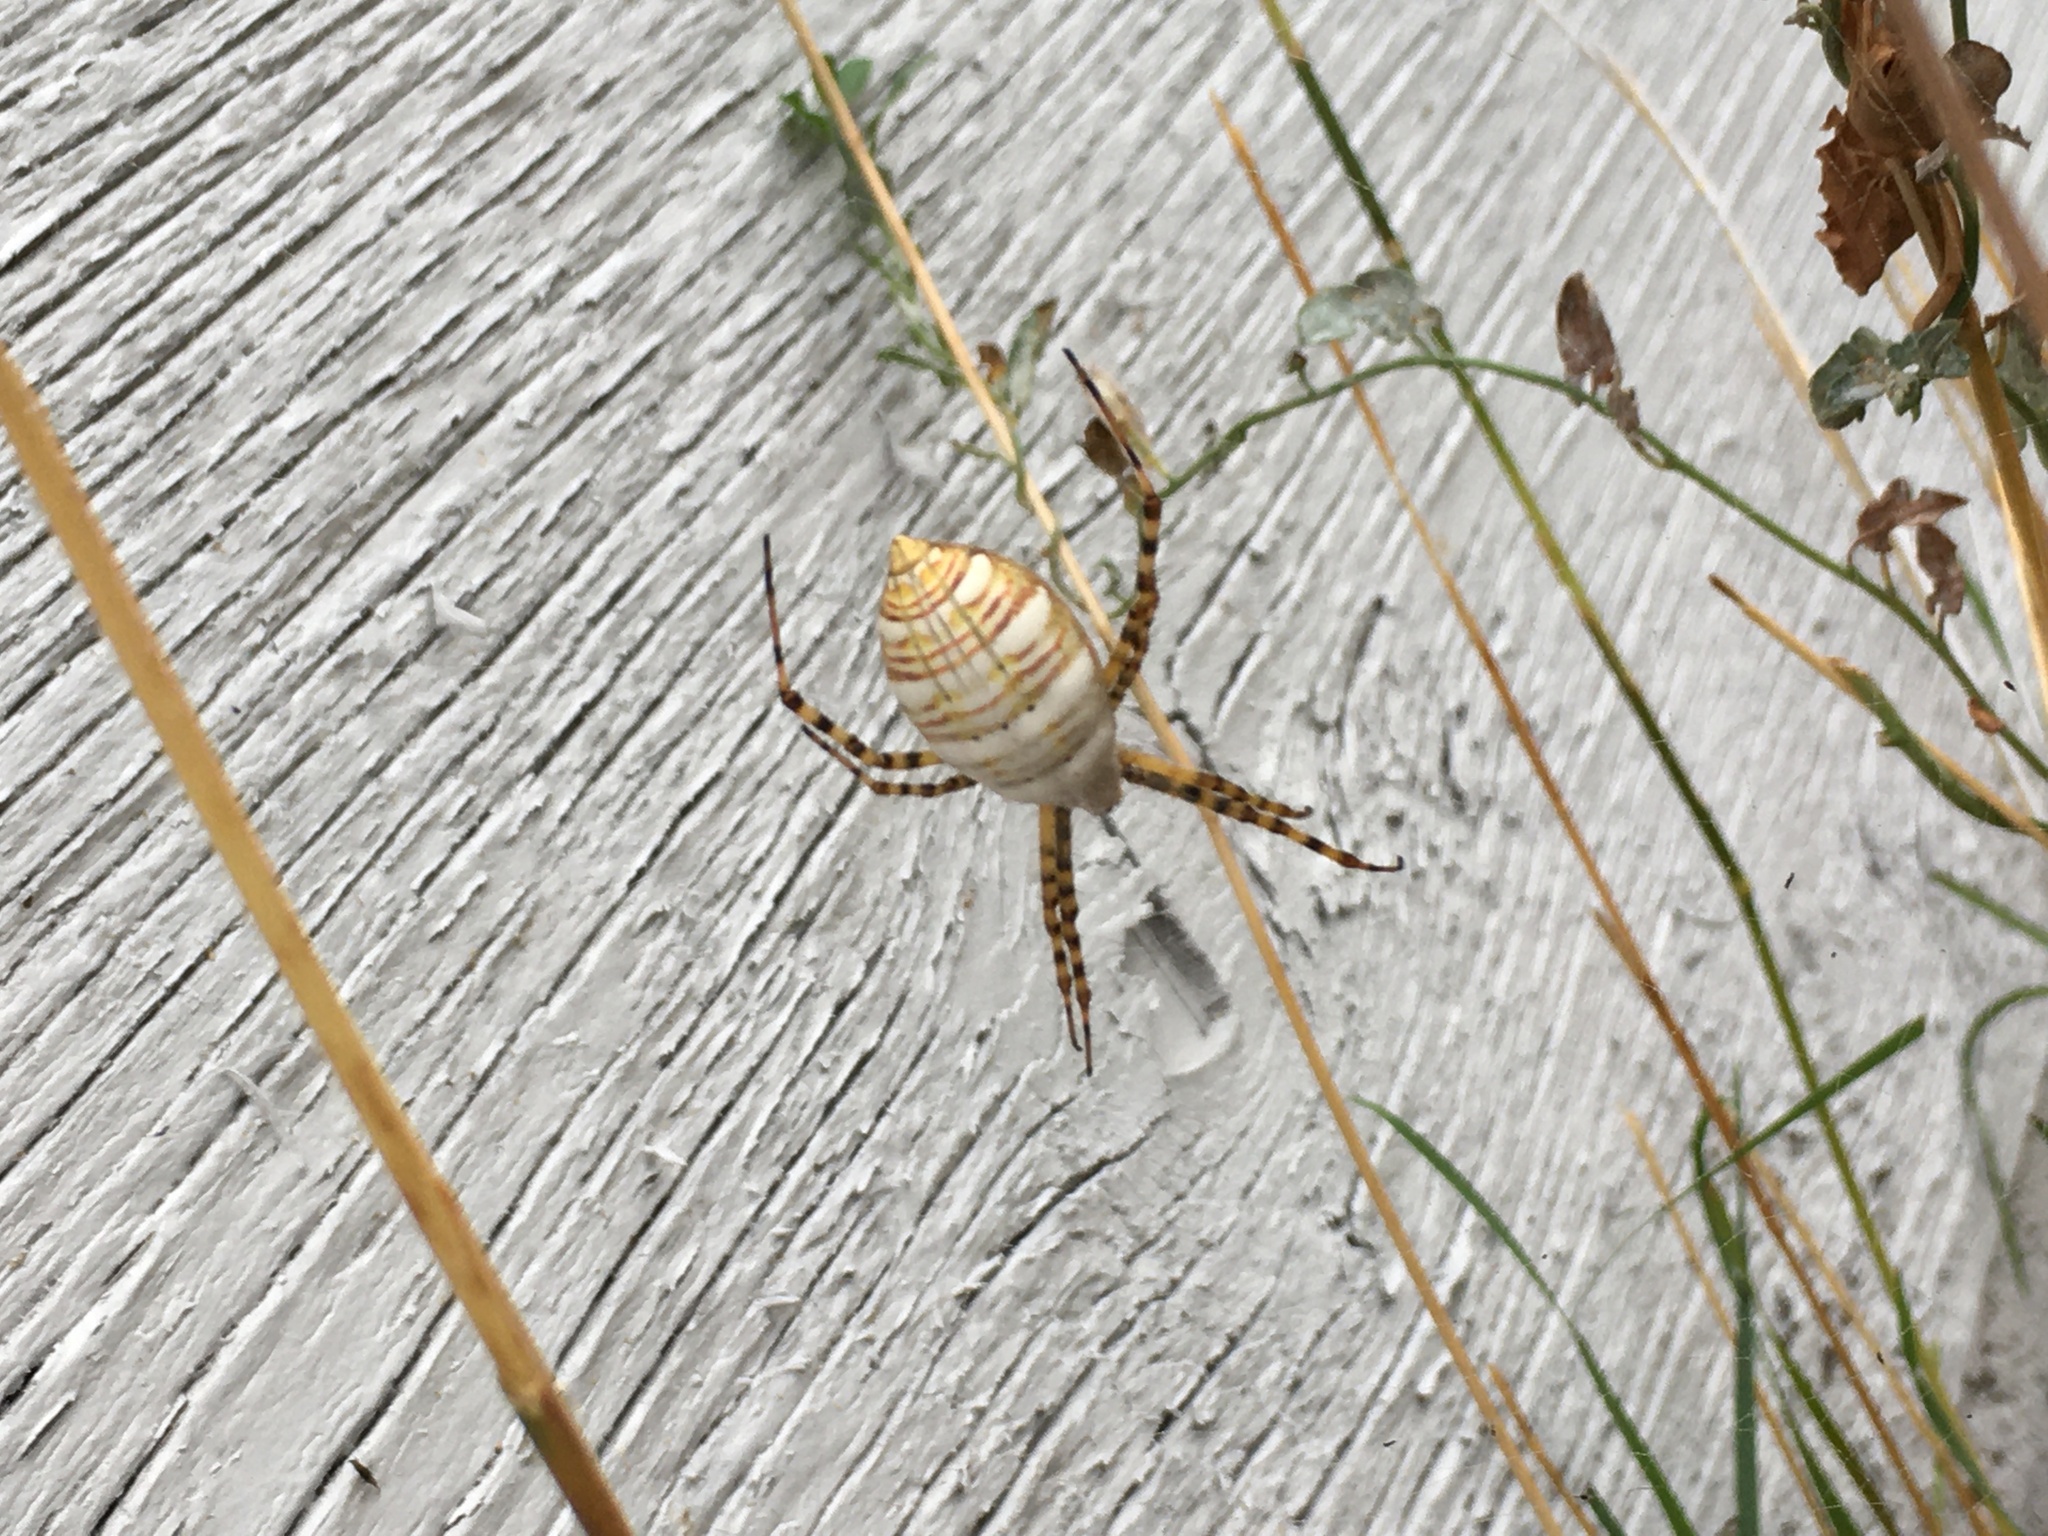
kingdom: Animalia
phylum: Arthropoda
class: Arachnida
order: Araneae
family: Araneidae
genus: Argiope
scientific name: Argiope trifasciata
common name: Banded garden spider
